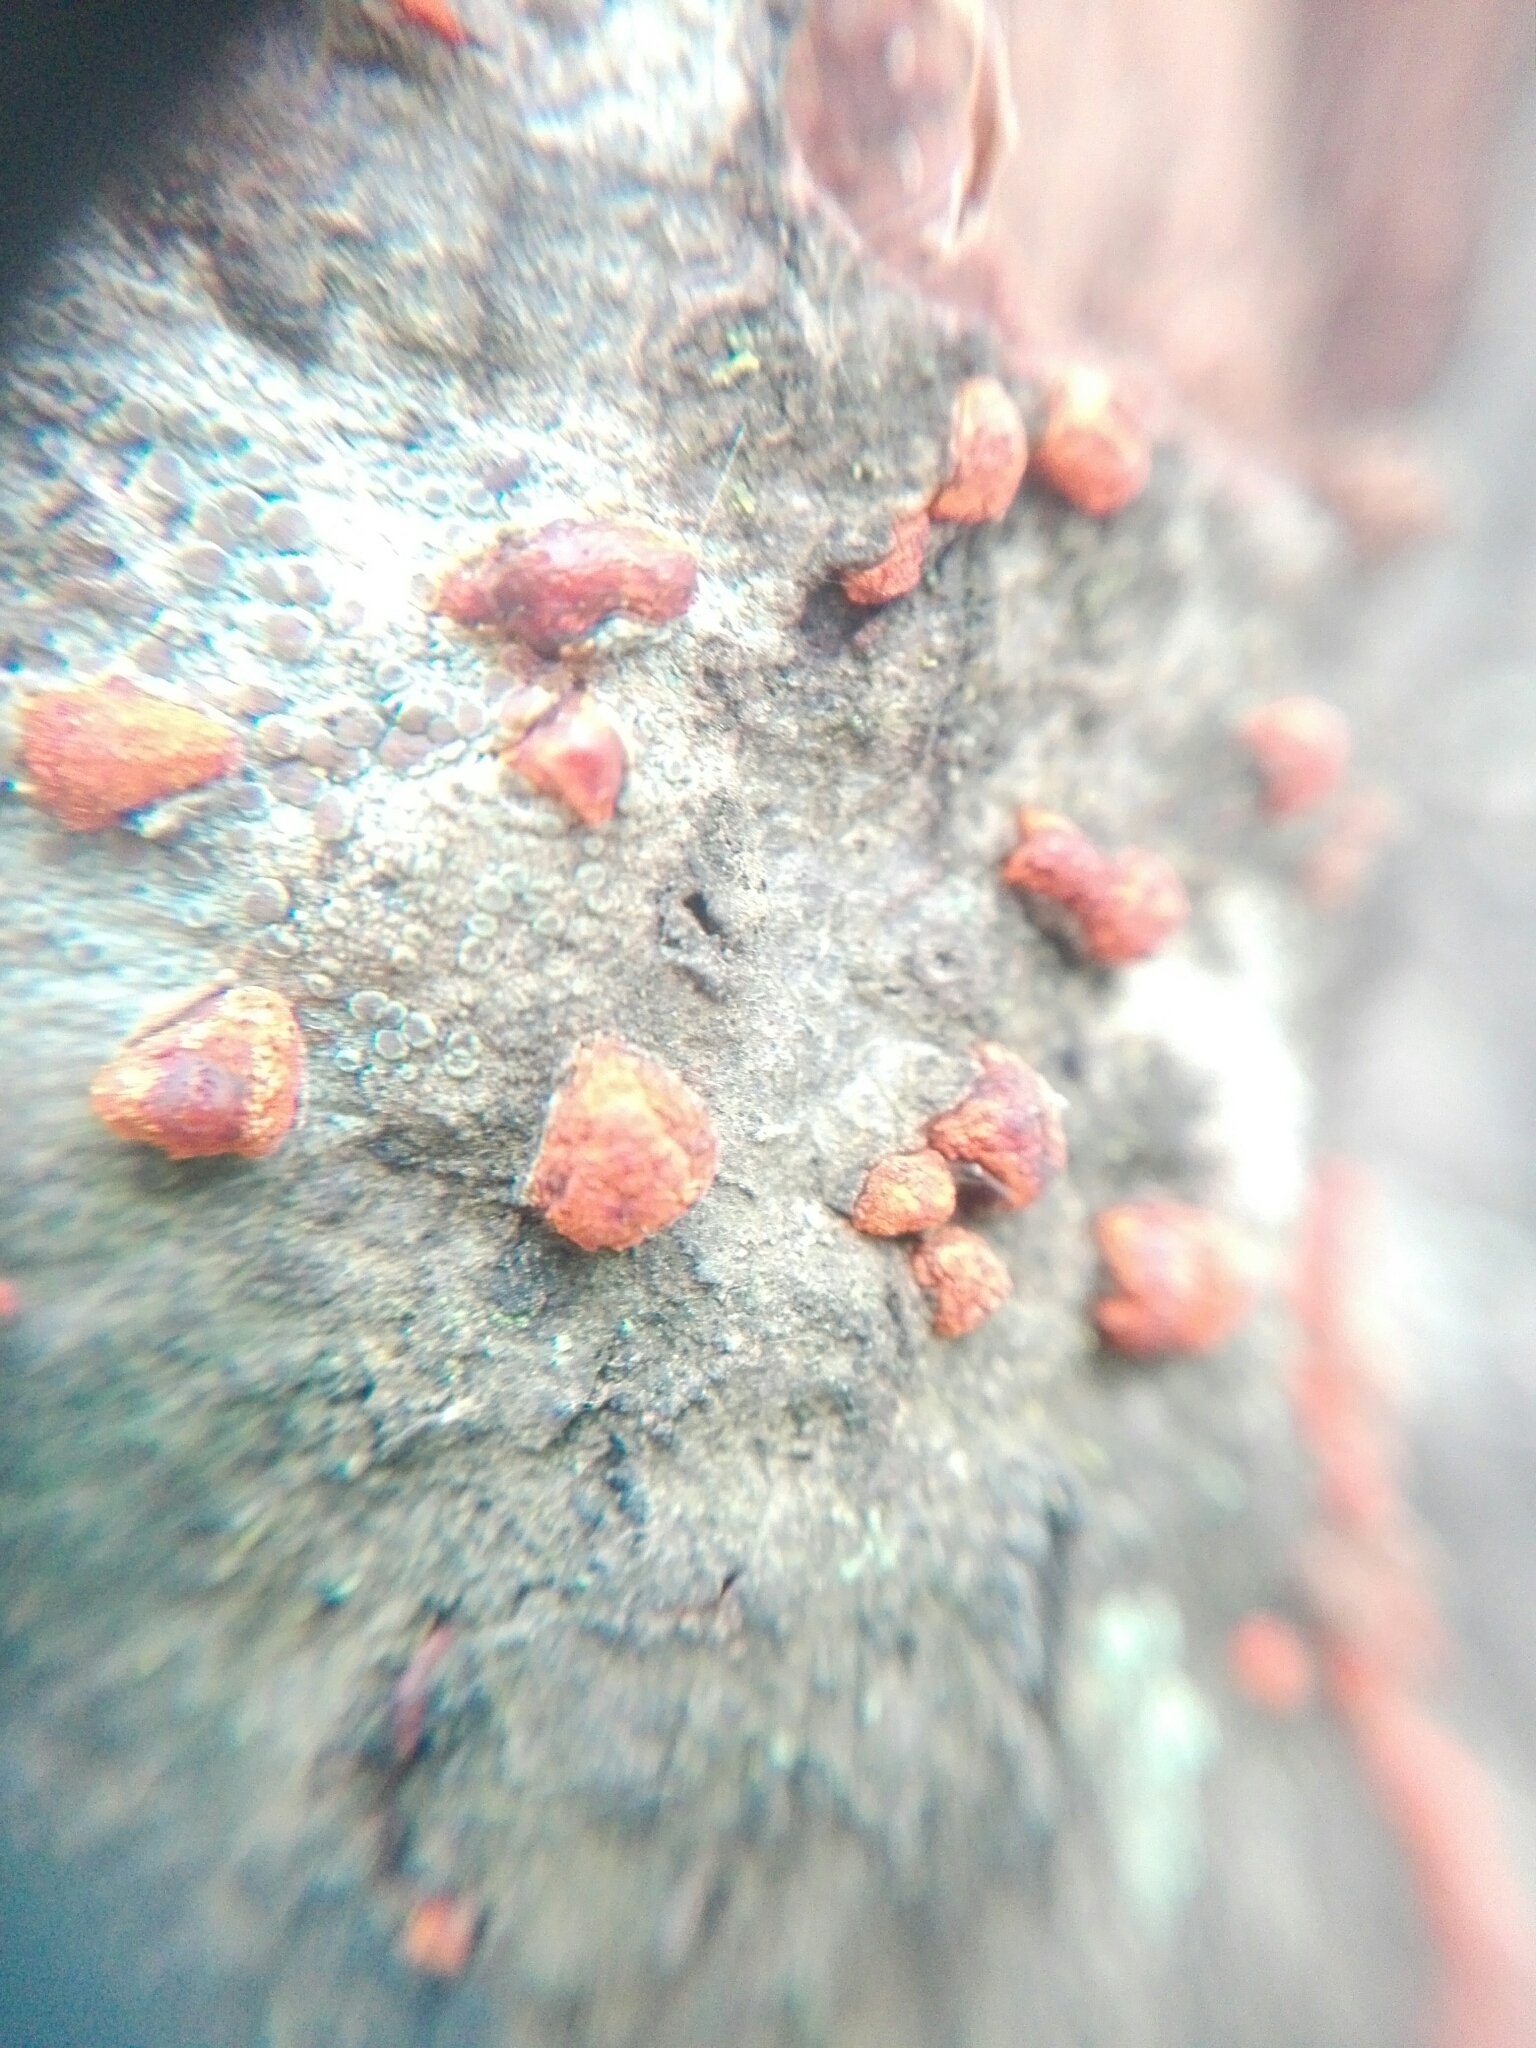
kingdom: Fungi
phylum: Ascomycota
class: Sordariomycetes
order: Diaporthales
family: Cryphonectriaceae
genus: Amphilogia
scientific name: Amphilogia gyrosa
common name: Orange hobnail canker
